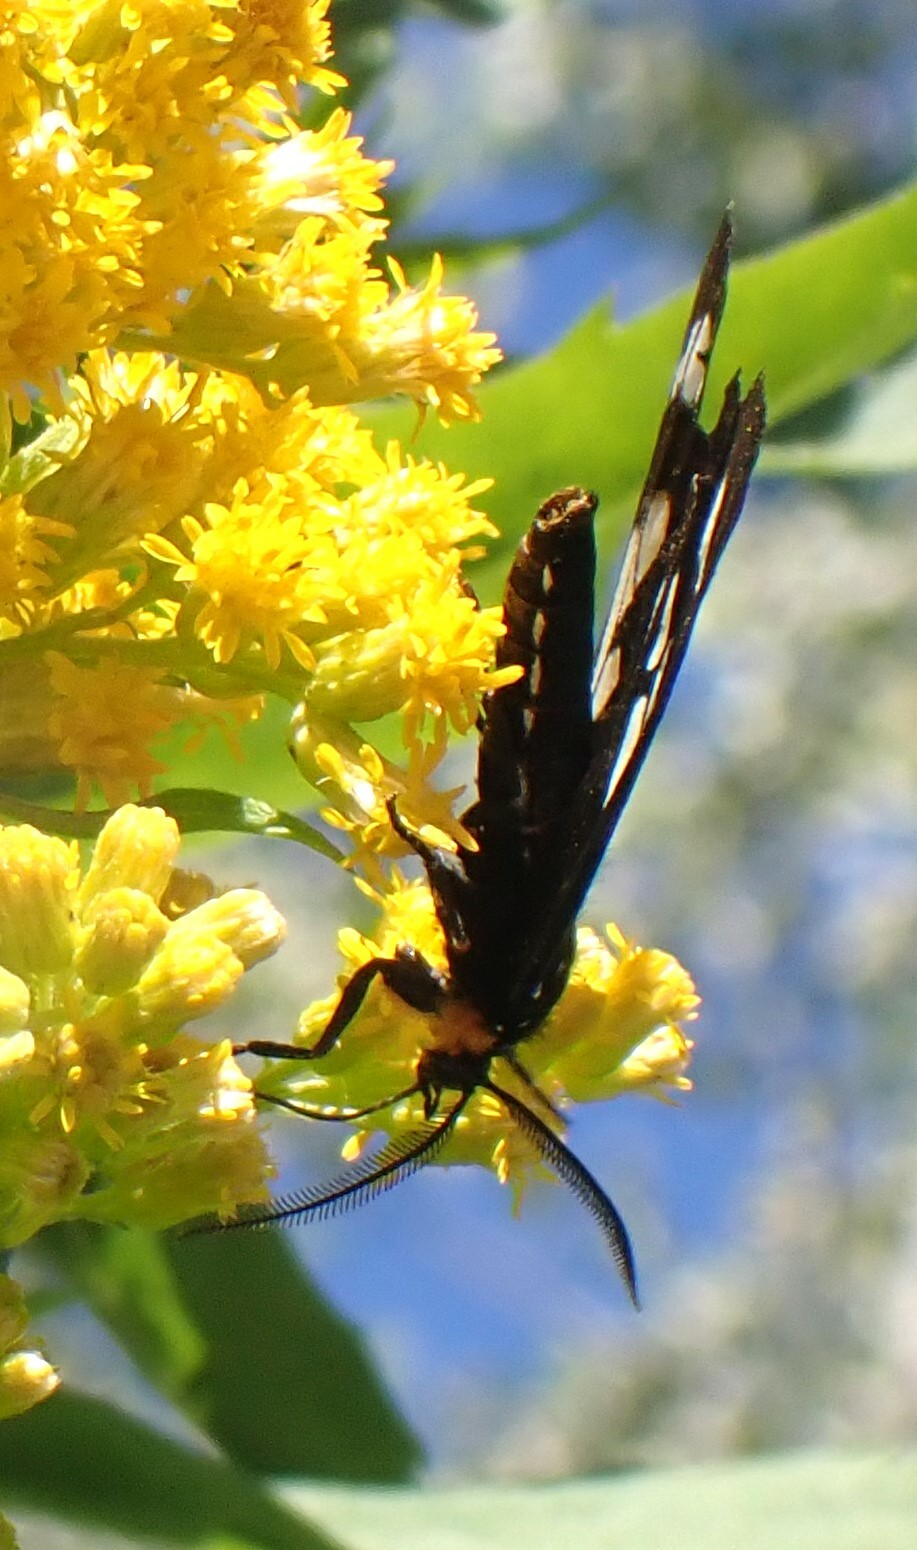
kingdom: Animalia
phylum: Arthropoda
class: Insecta
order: Lepidoptera
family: Erebidae
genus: Gnophaela
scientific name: Gnophaela vermiculata
